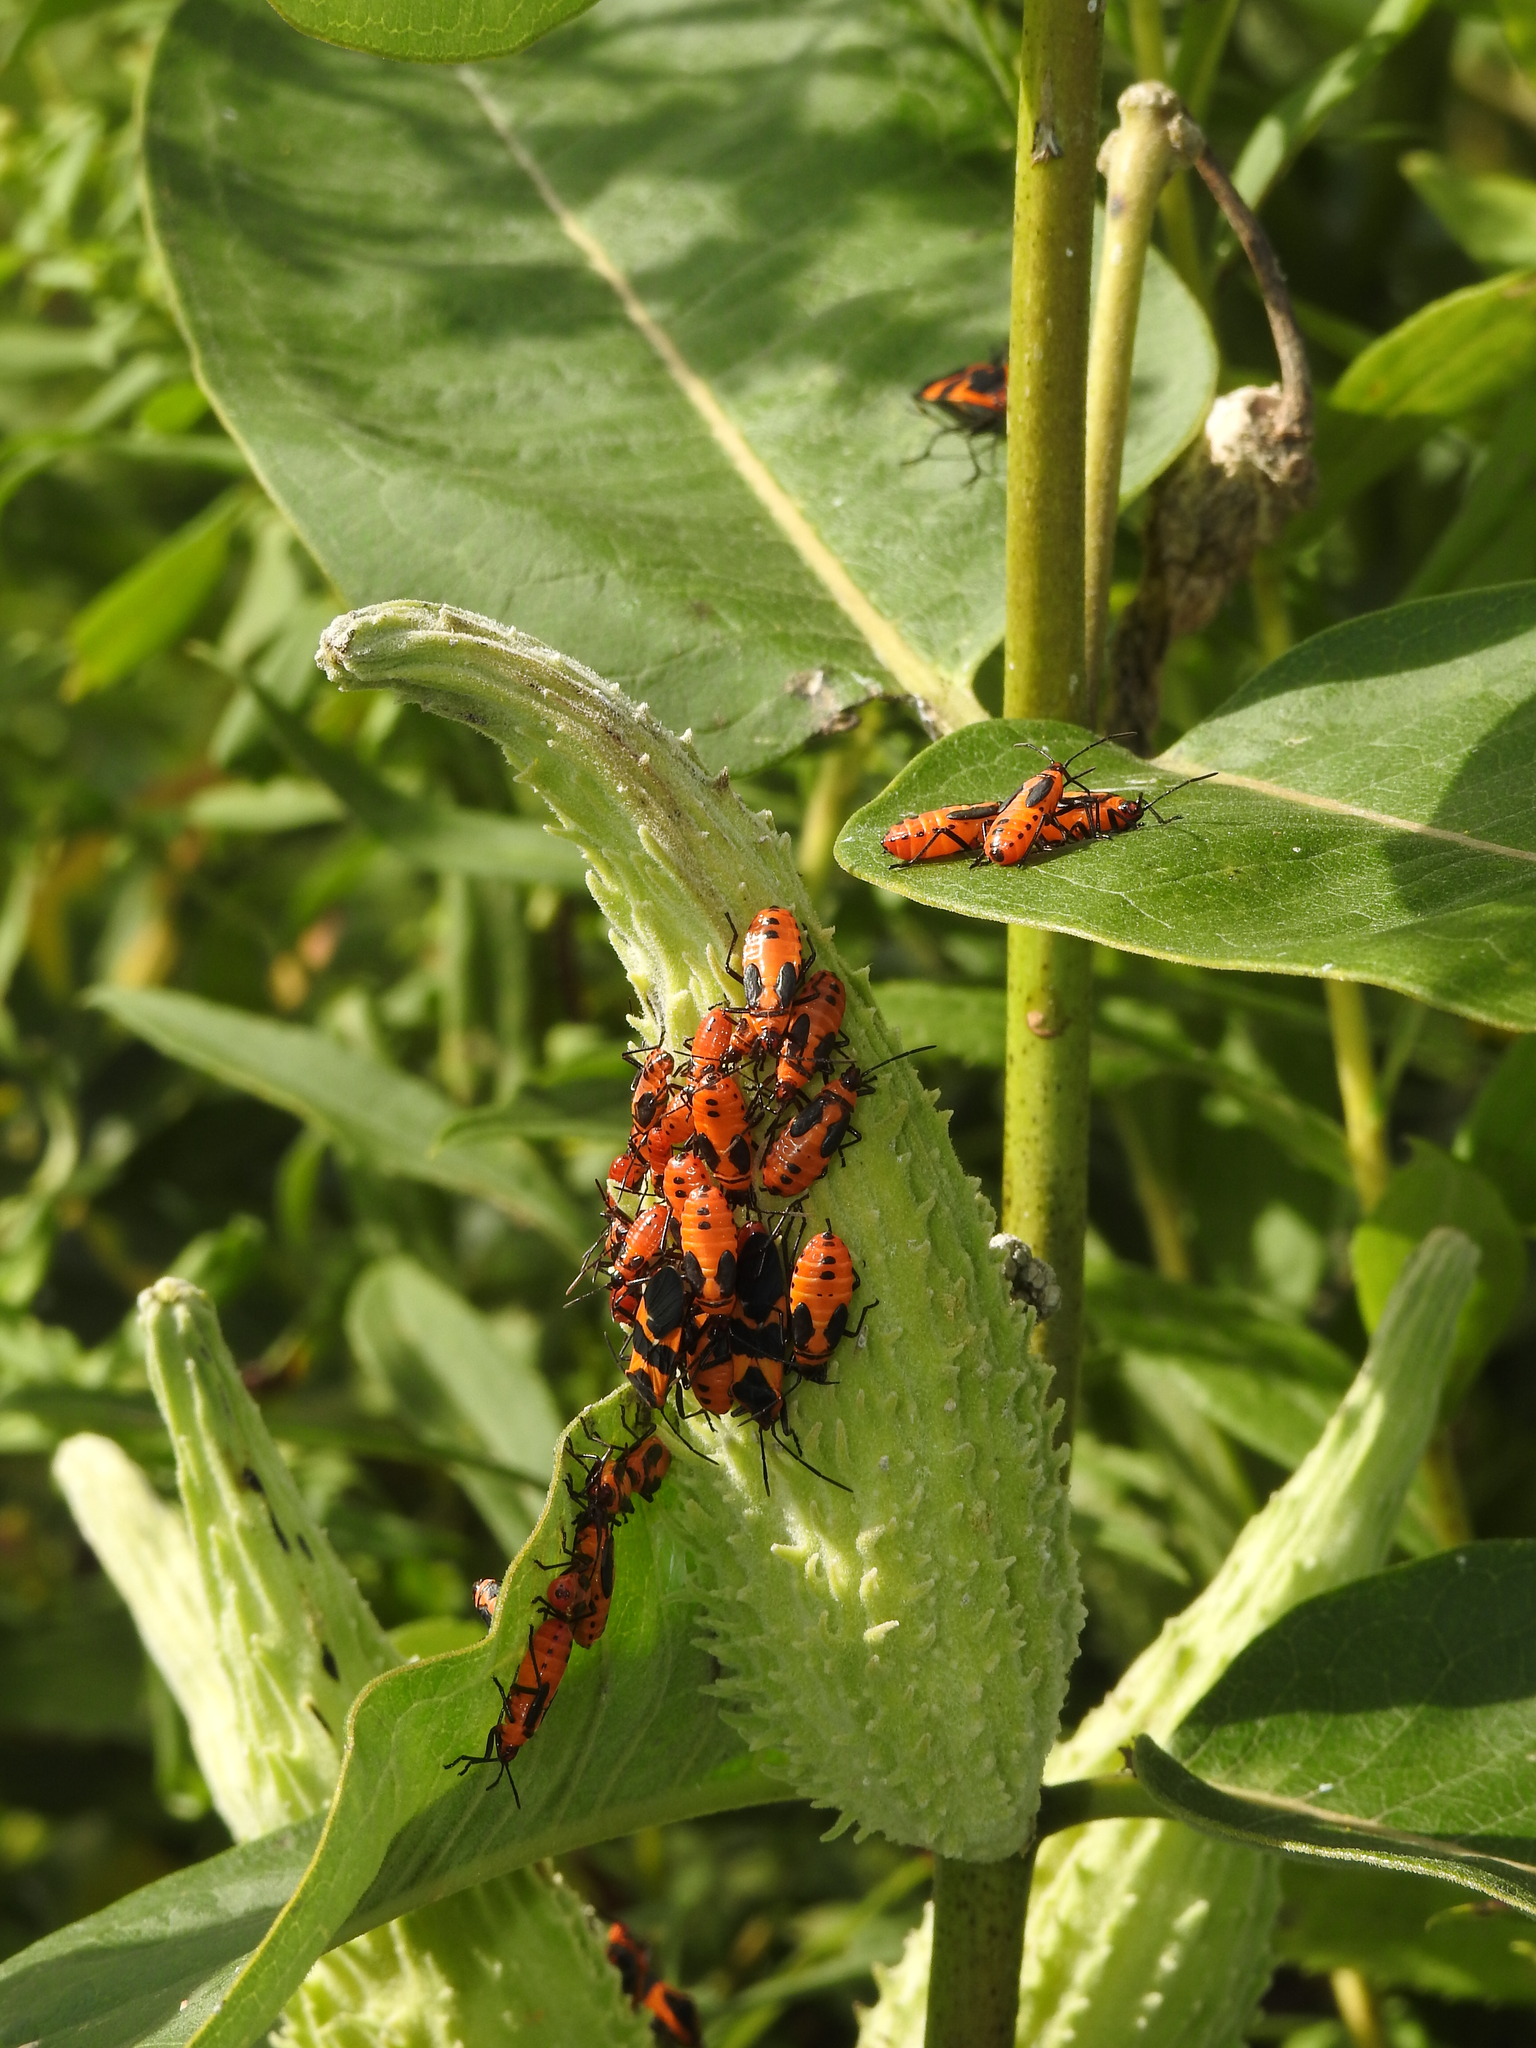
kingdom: Animalia
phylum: Arthropoda
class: Insecta
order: Hemiptera
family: Lygaeidae
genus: Oncopeltus
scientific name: Oncopeltus fasciatus
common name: Large milkweed bug
